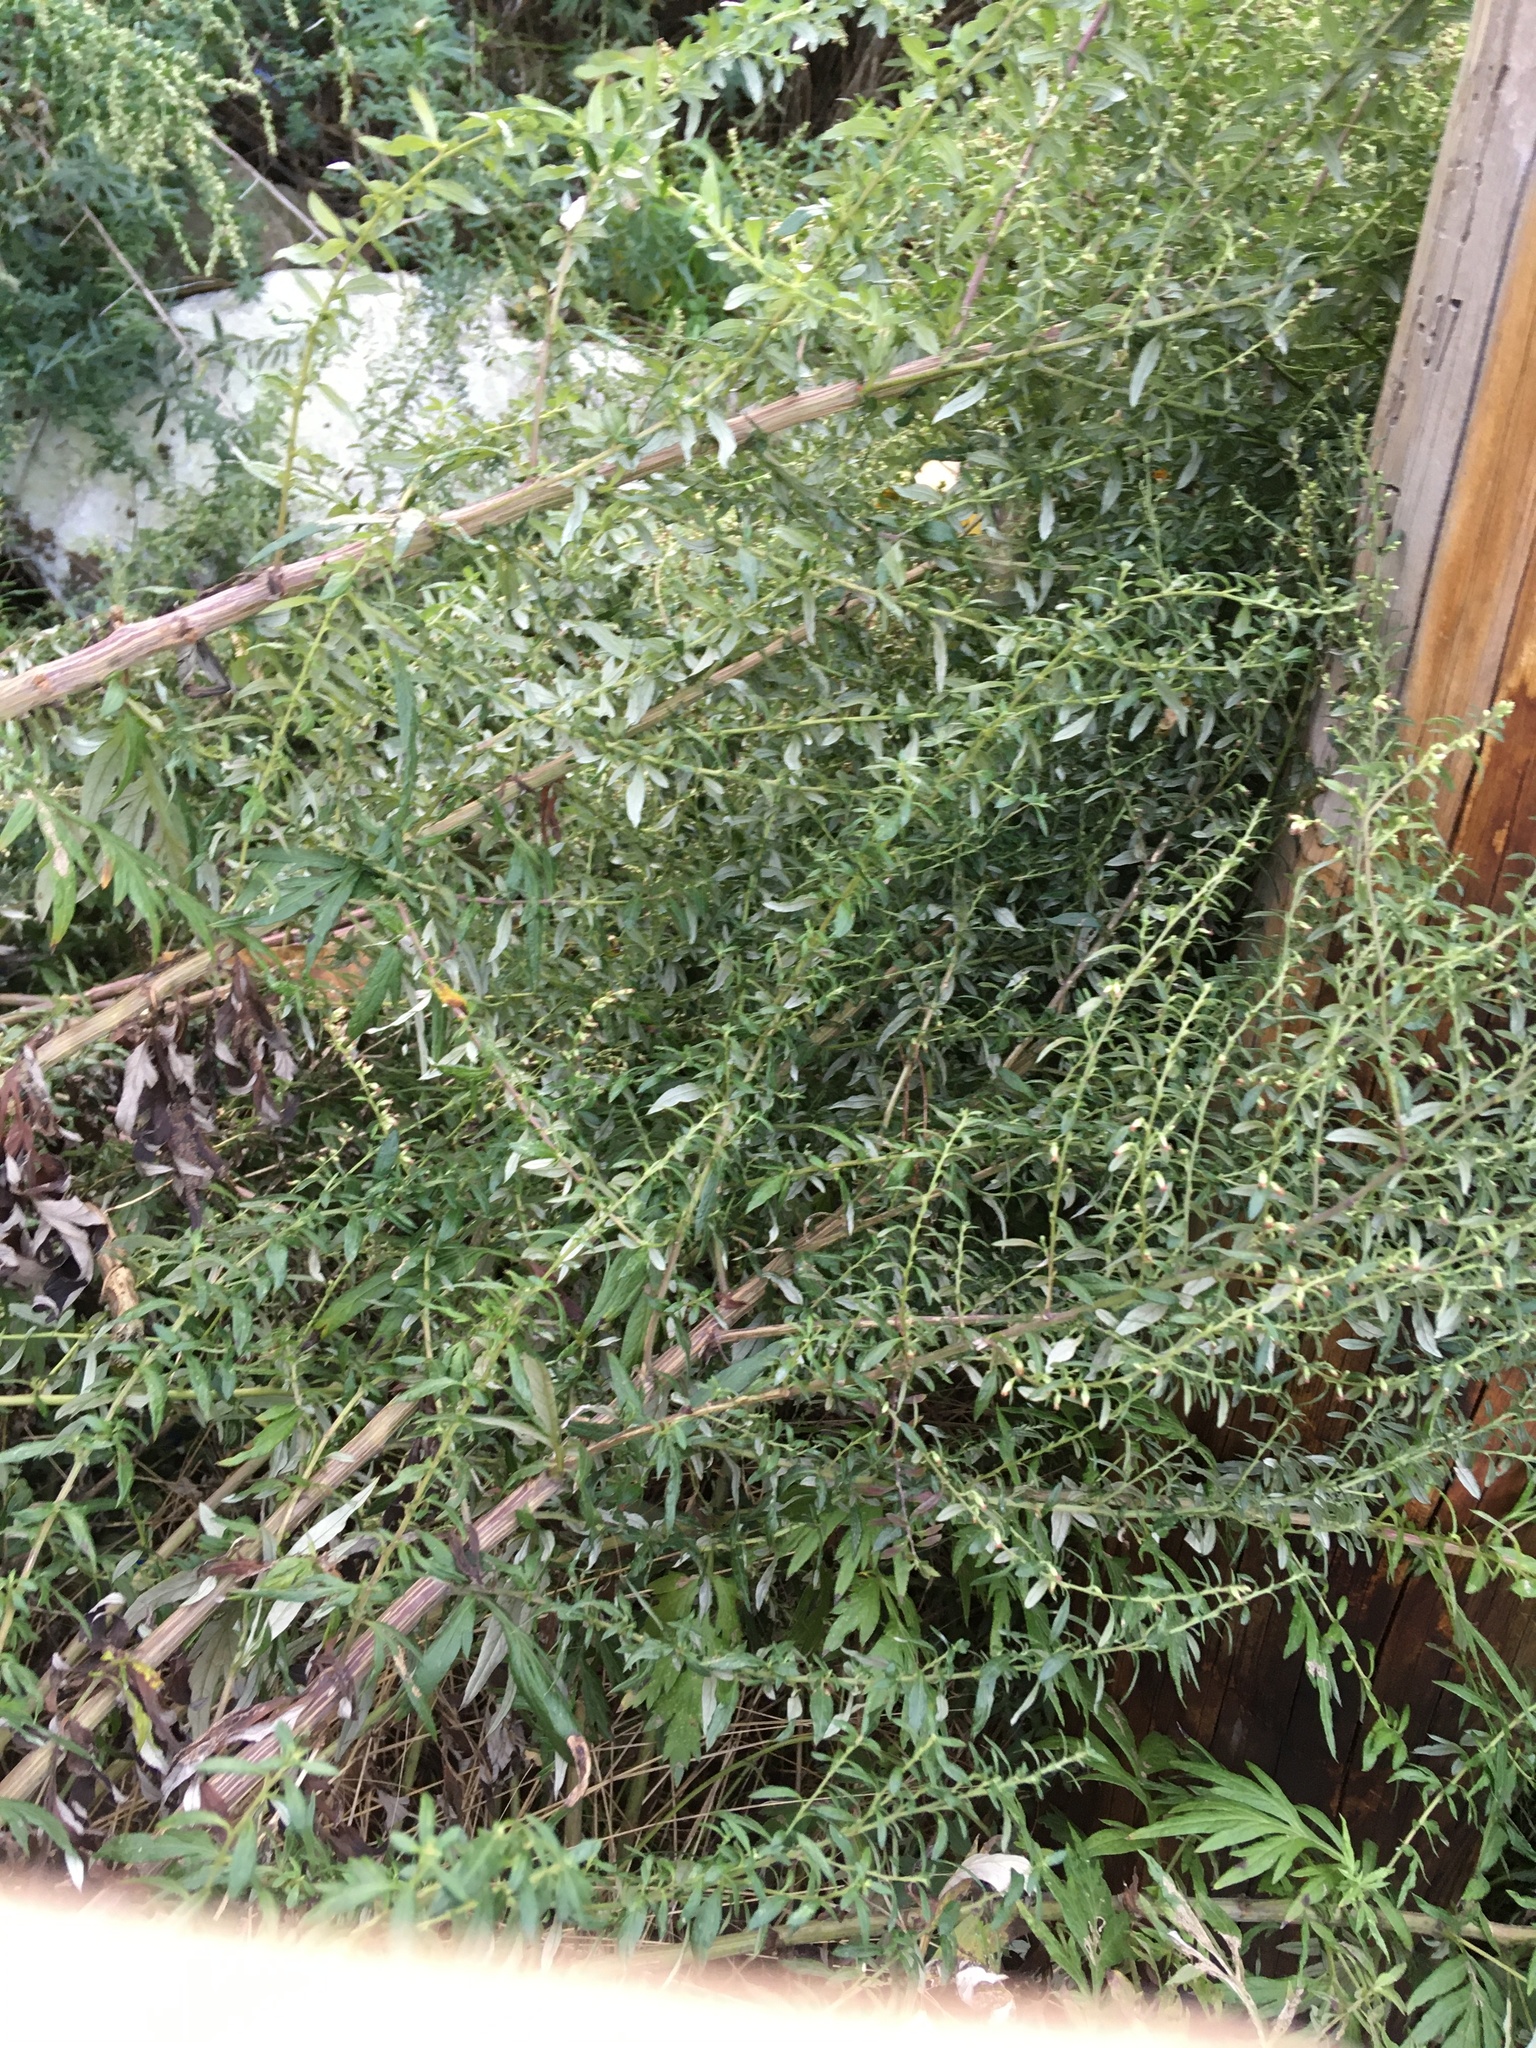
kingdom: Plantae
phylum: Tracheophyta
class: Magnoliopsida
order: Asterales
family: Asteraceae
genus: Artemisia
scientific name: Artemisia vulgaris
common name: Mugwort
